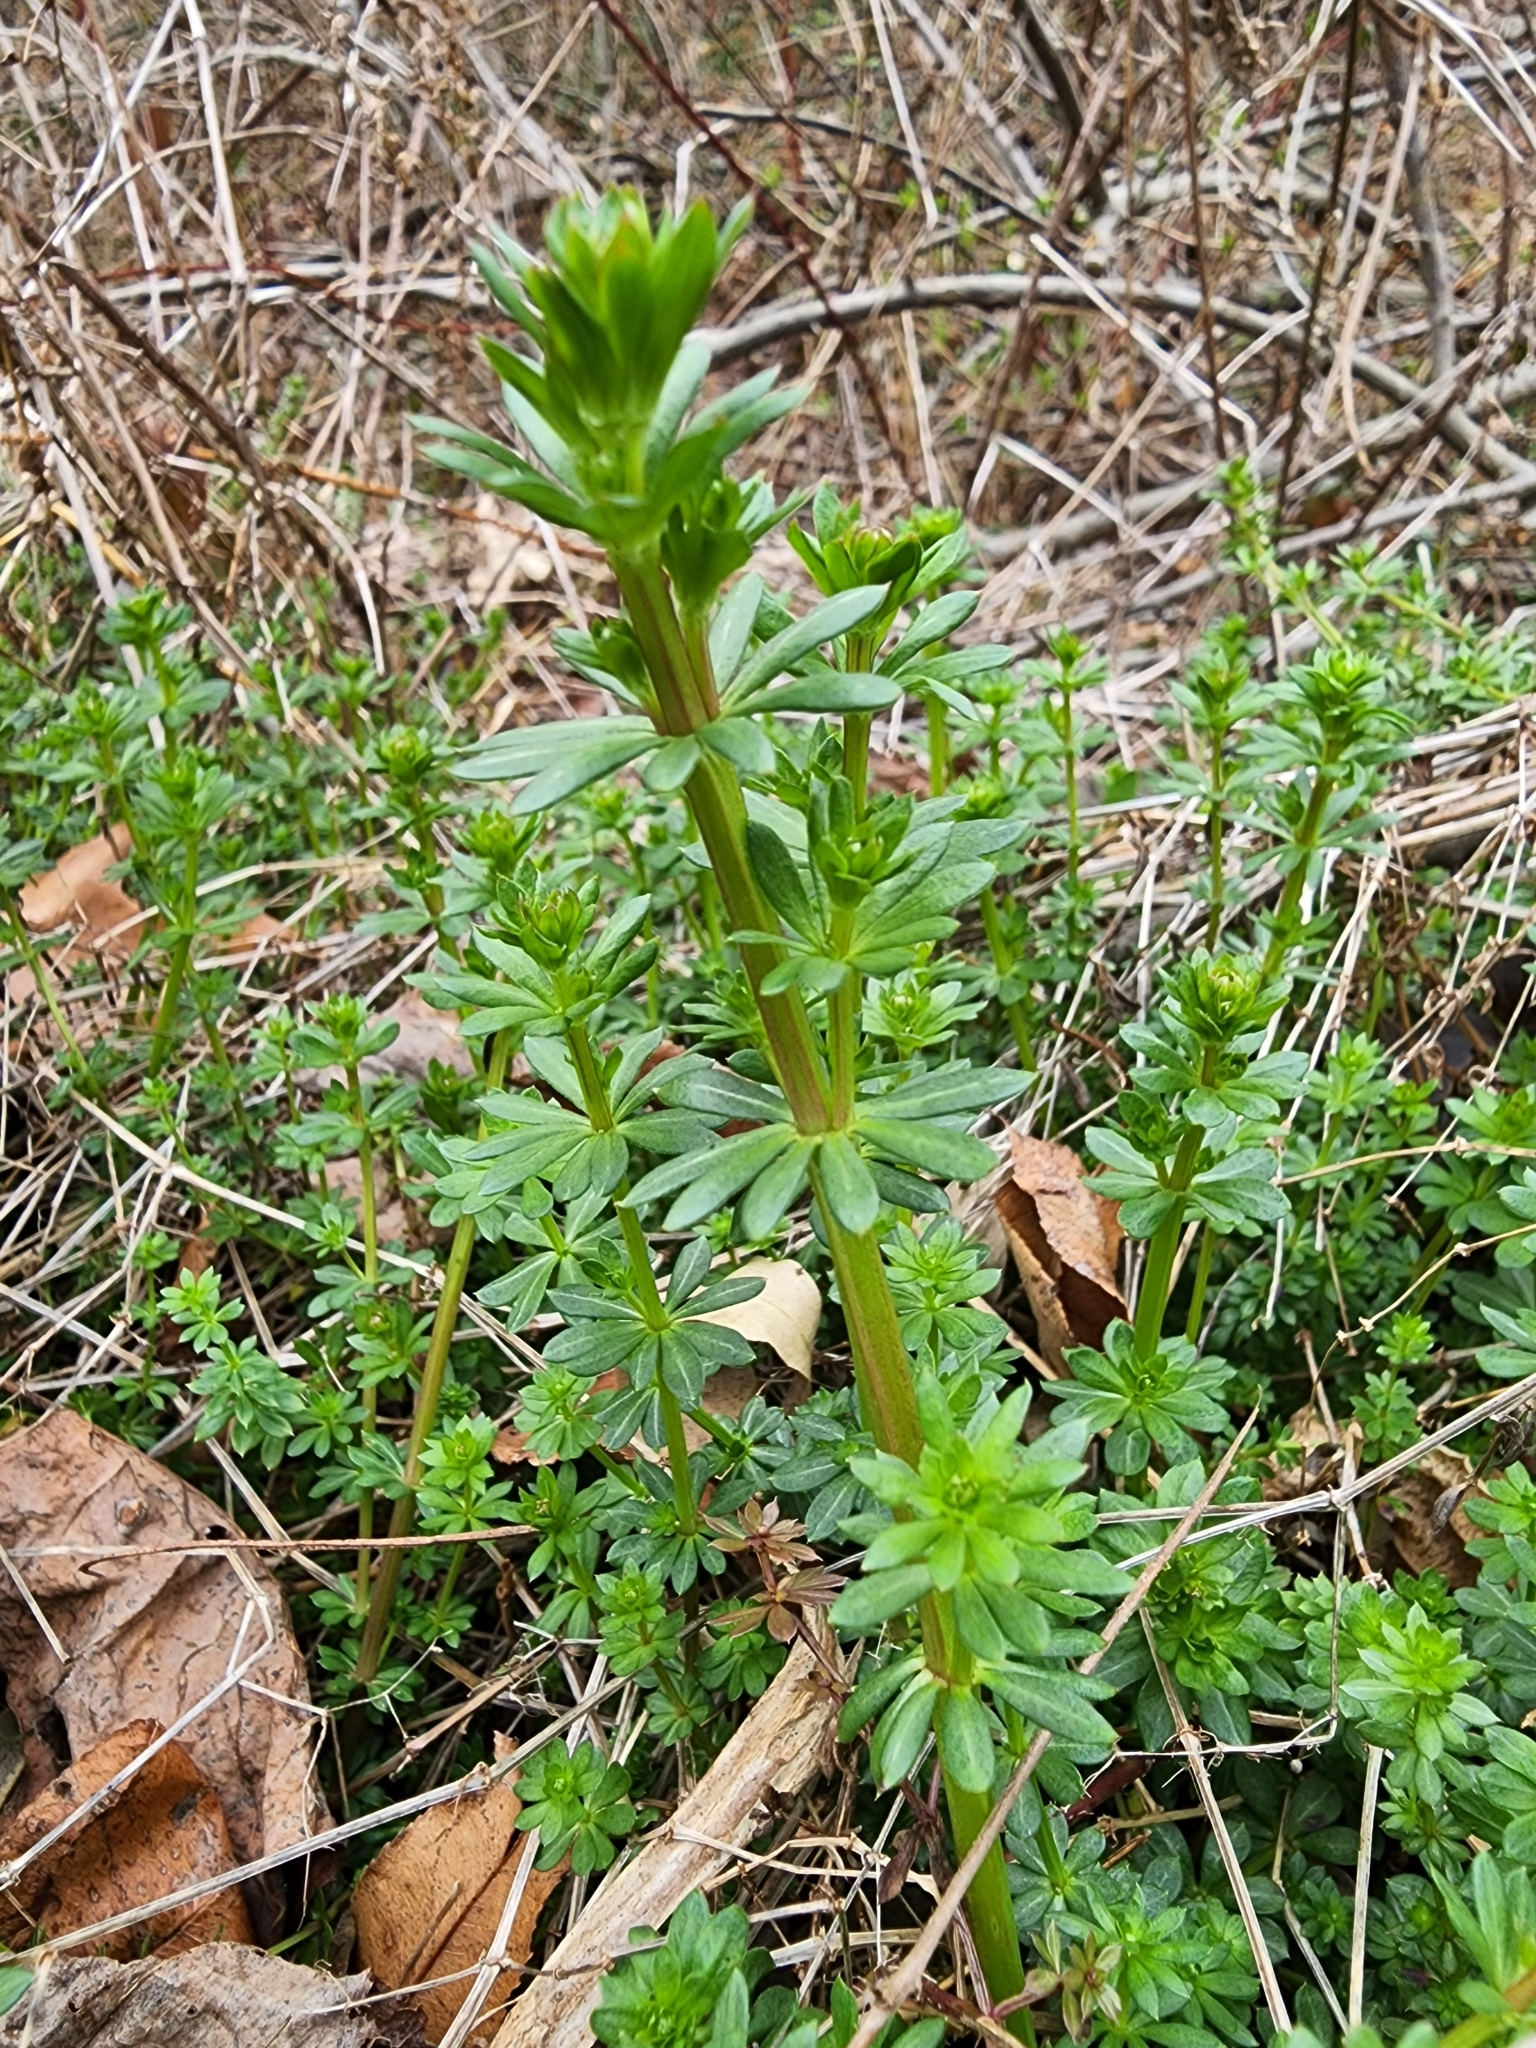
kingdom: Plantae
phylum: Tracheophyta
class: Magnoliopsida
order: Gentianales
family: Rubiaceae
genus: Galium
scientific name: Galium mollugo
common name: Hedge bedstraw
